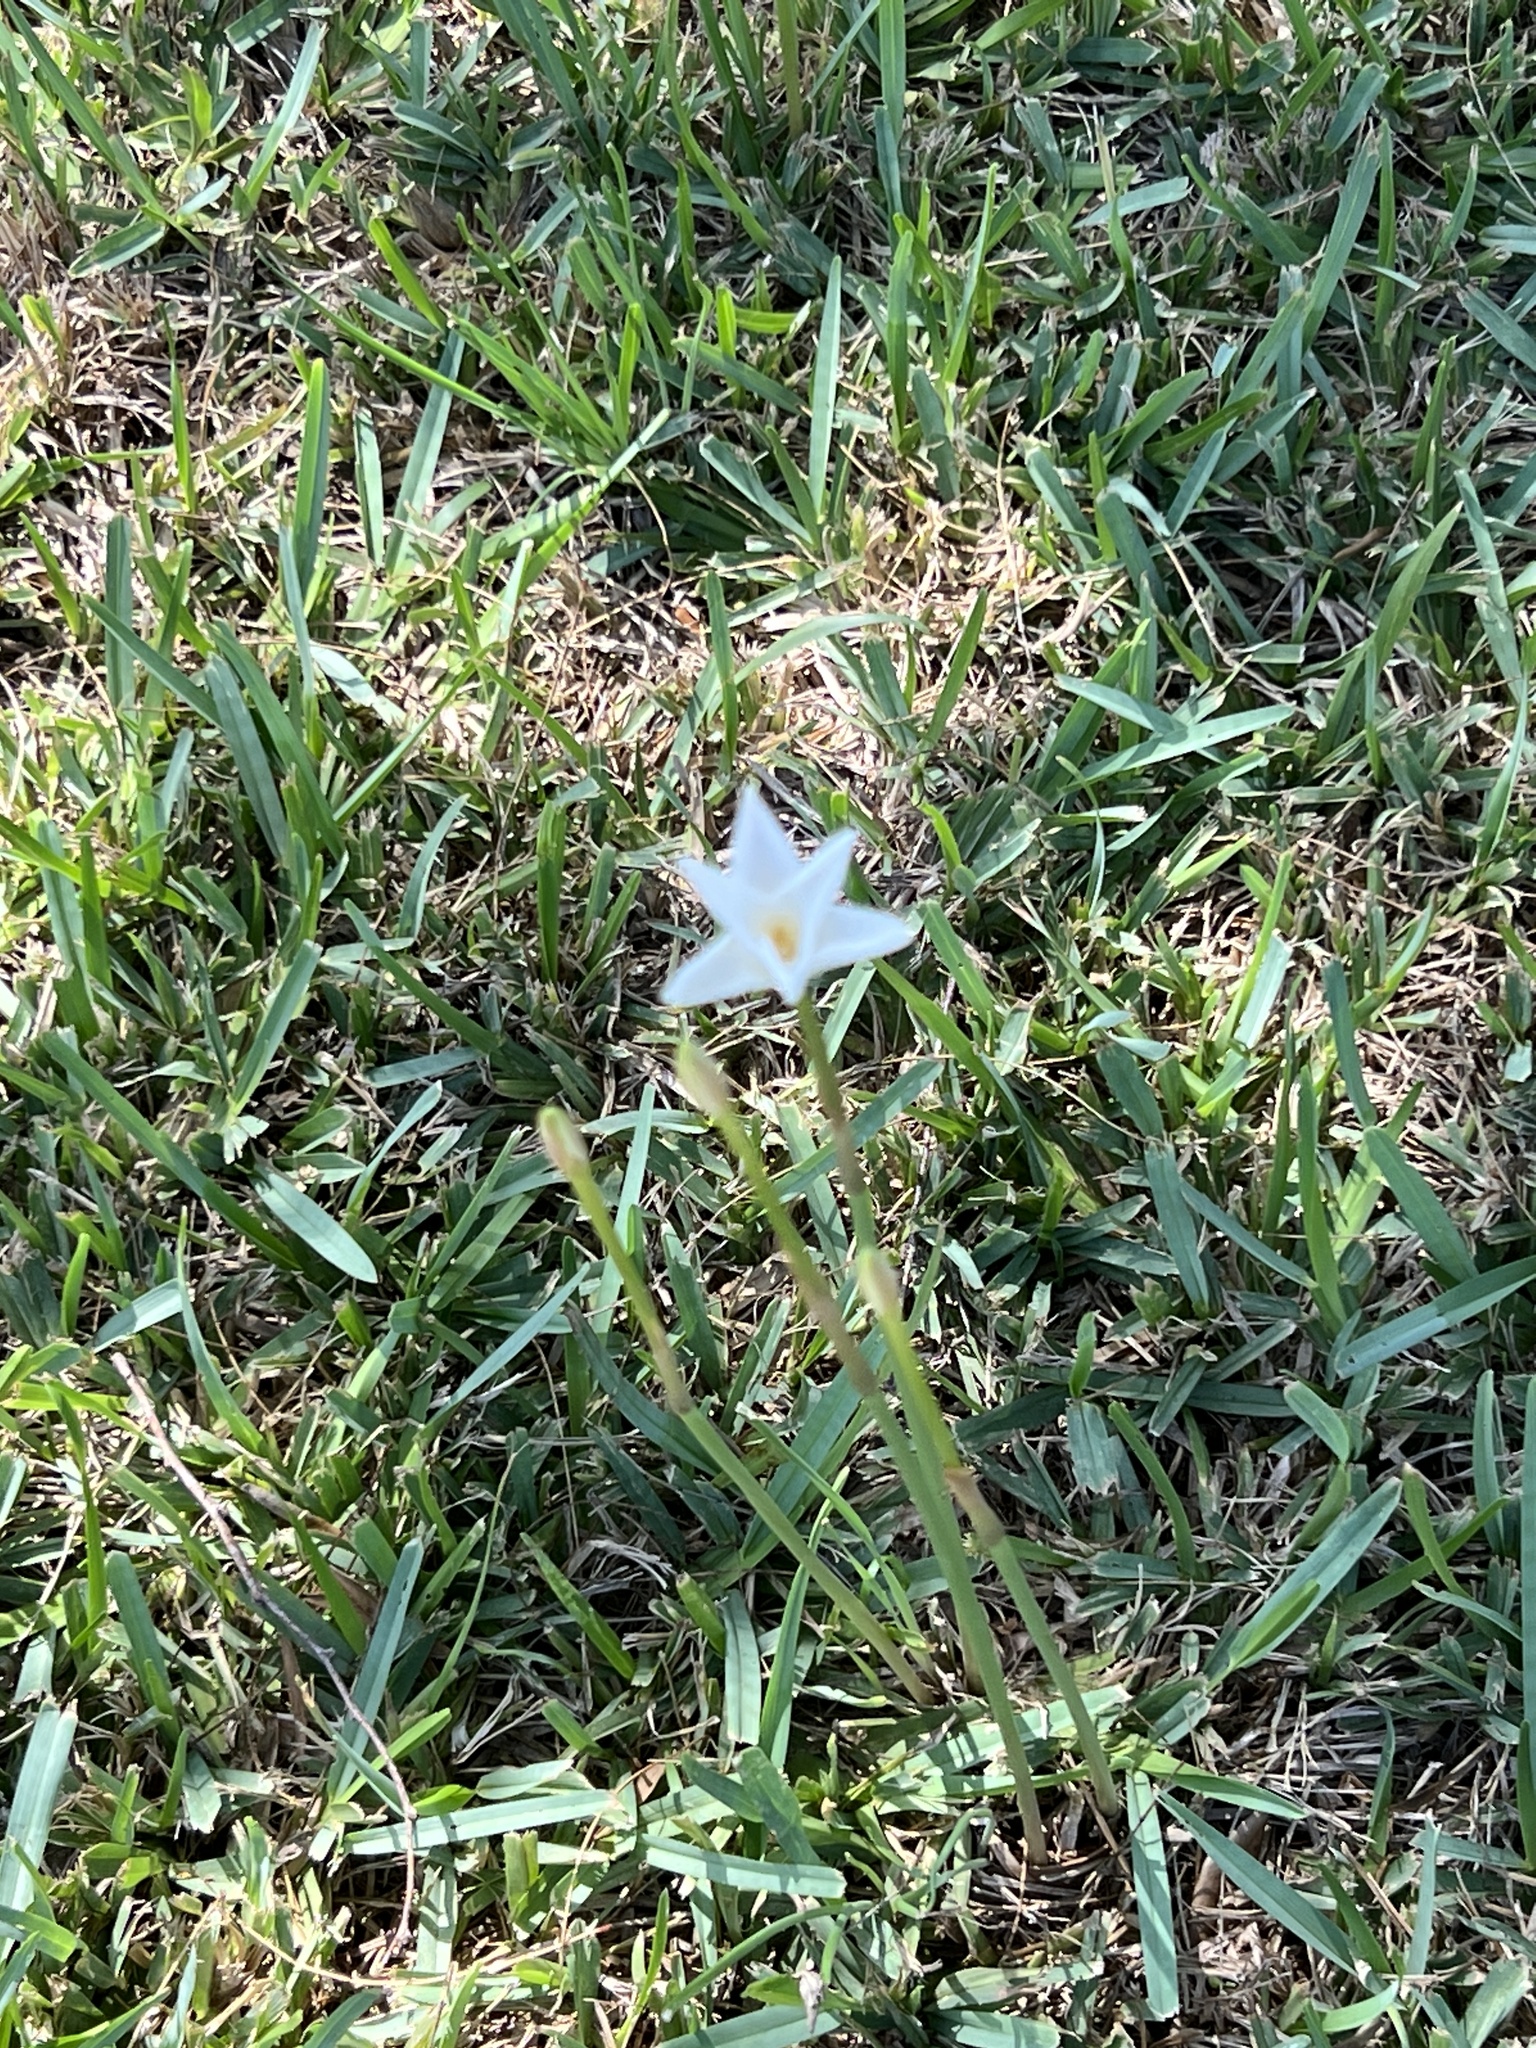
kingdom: Plantae
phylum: Tracheophyta
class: Liliopsida
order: Asparagales
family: Amaryllidaceae
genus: Zephyranthes
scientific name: Zephyranthes chlorosolen
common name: Evening rain-lily
